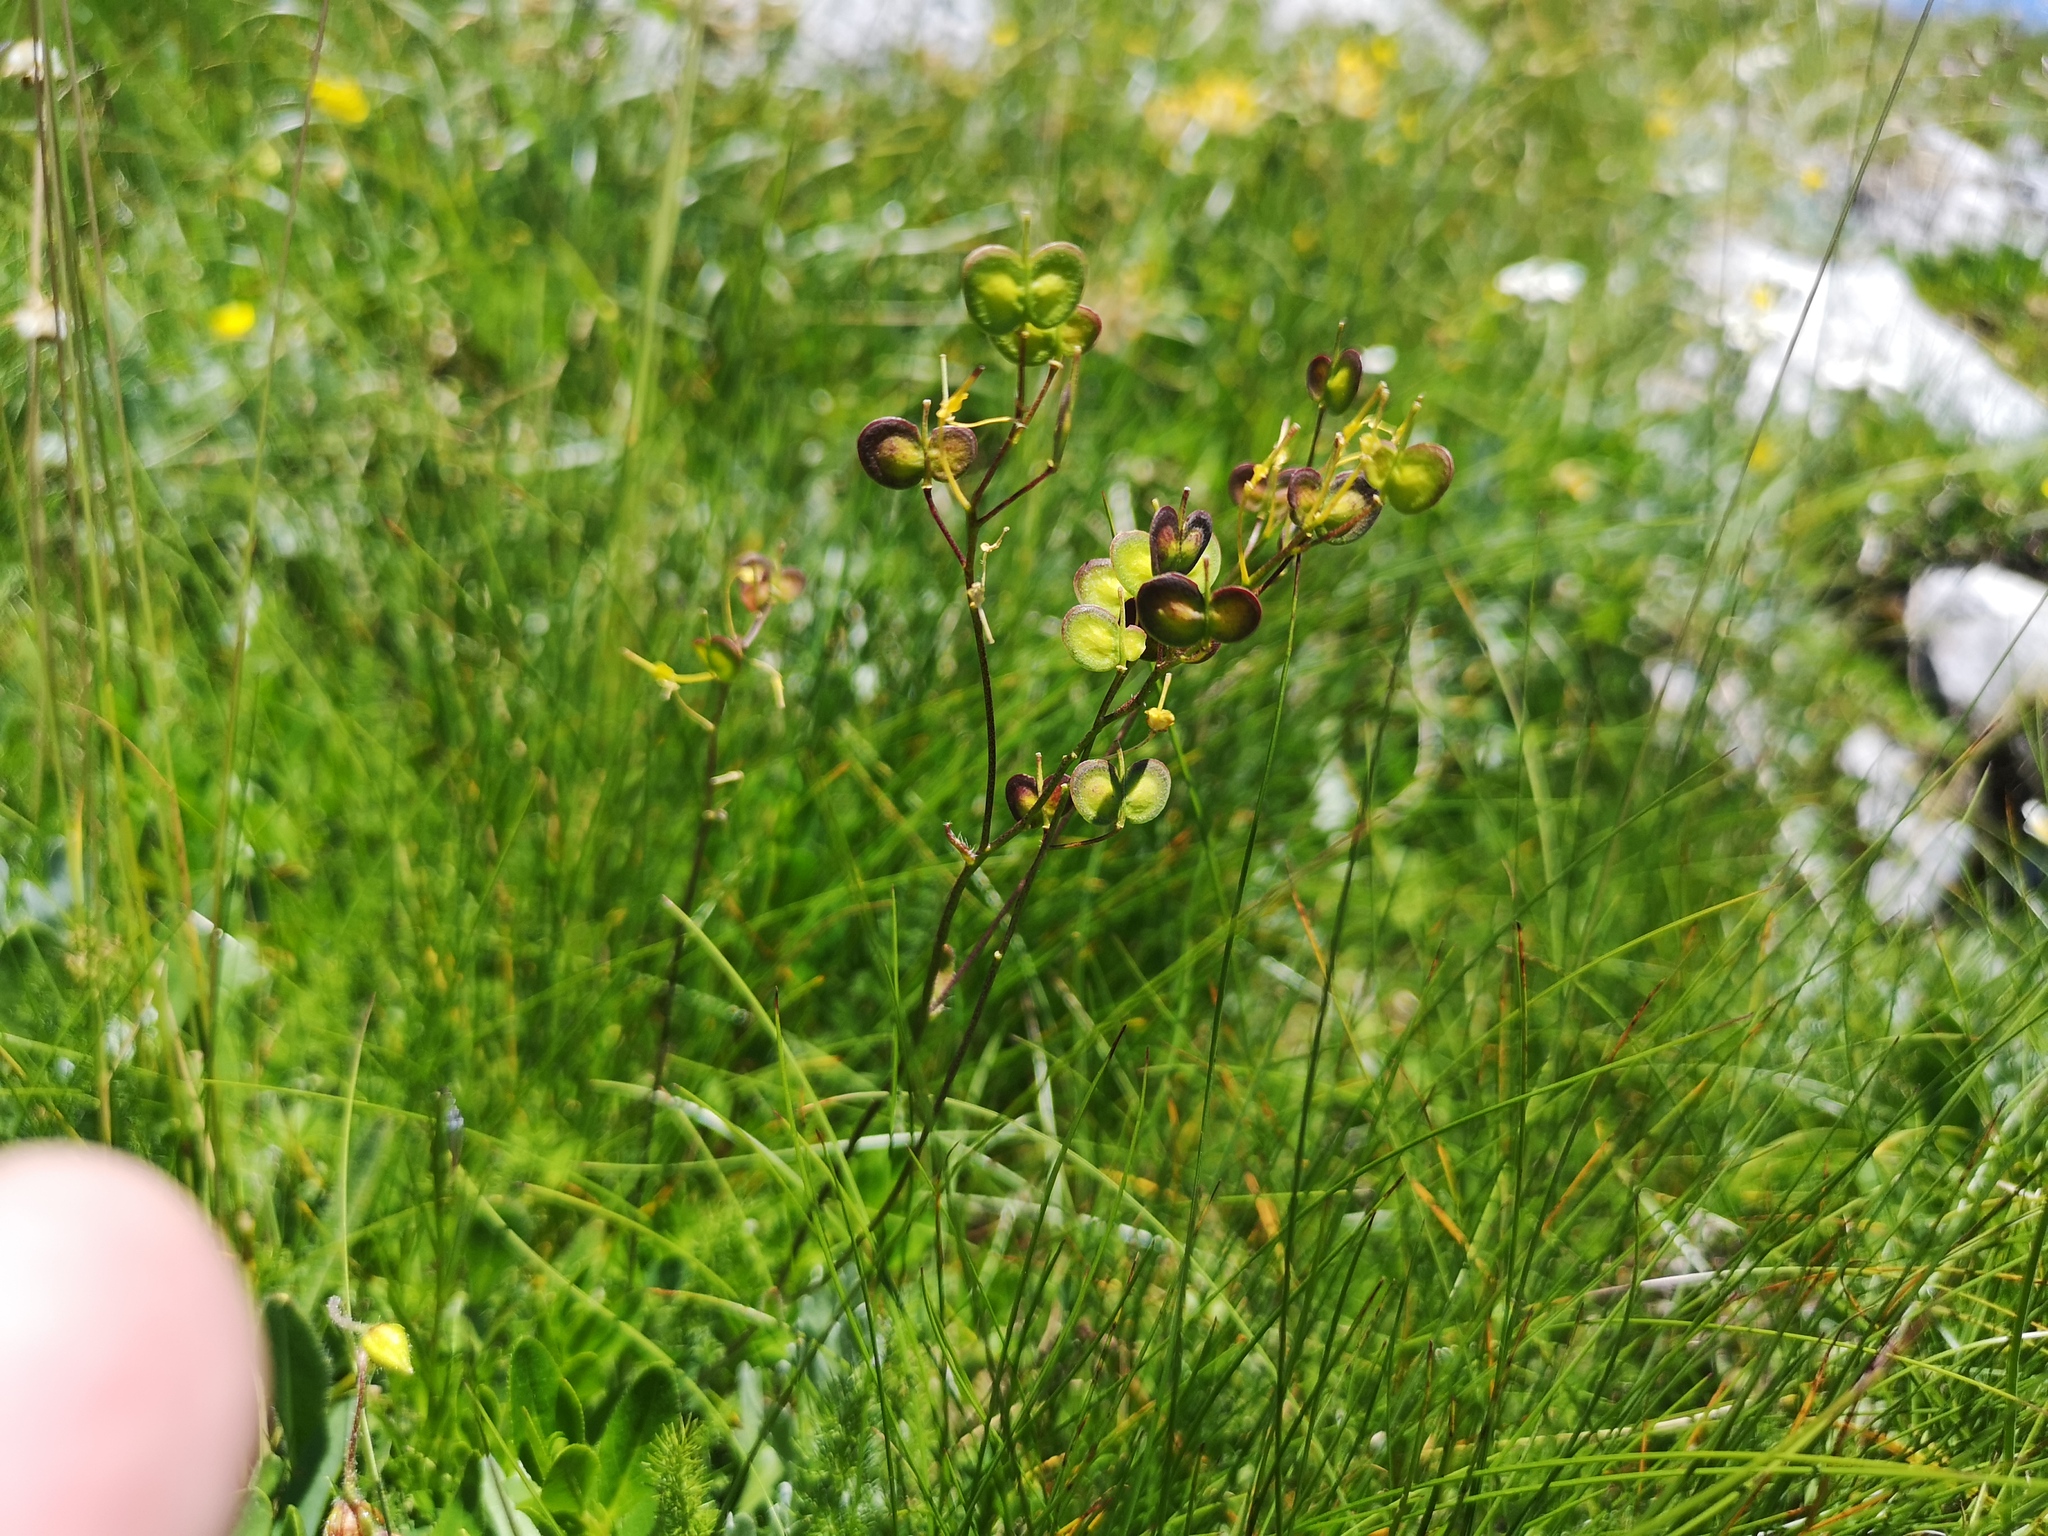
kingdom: Plantae
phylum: Tracheophyta
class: Magnoliopsida
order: Brassicales
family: Brassicaceae
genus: Biscutella
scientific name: Biscutella laevigata
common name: Buckler mustard
